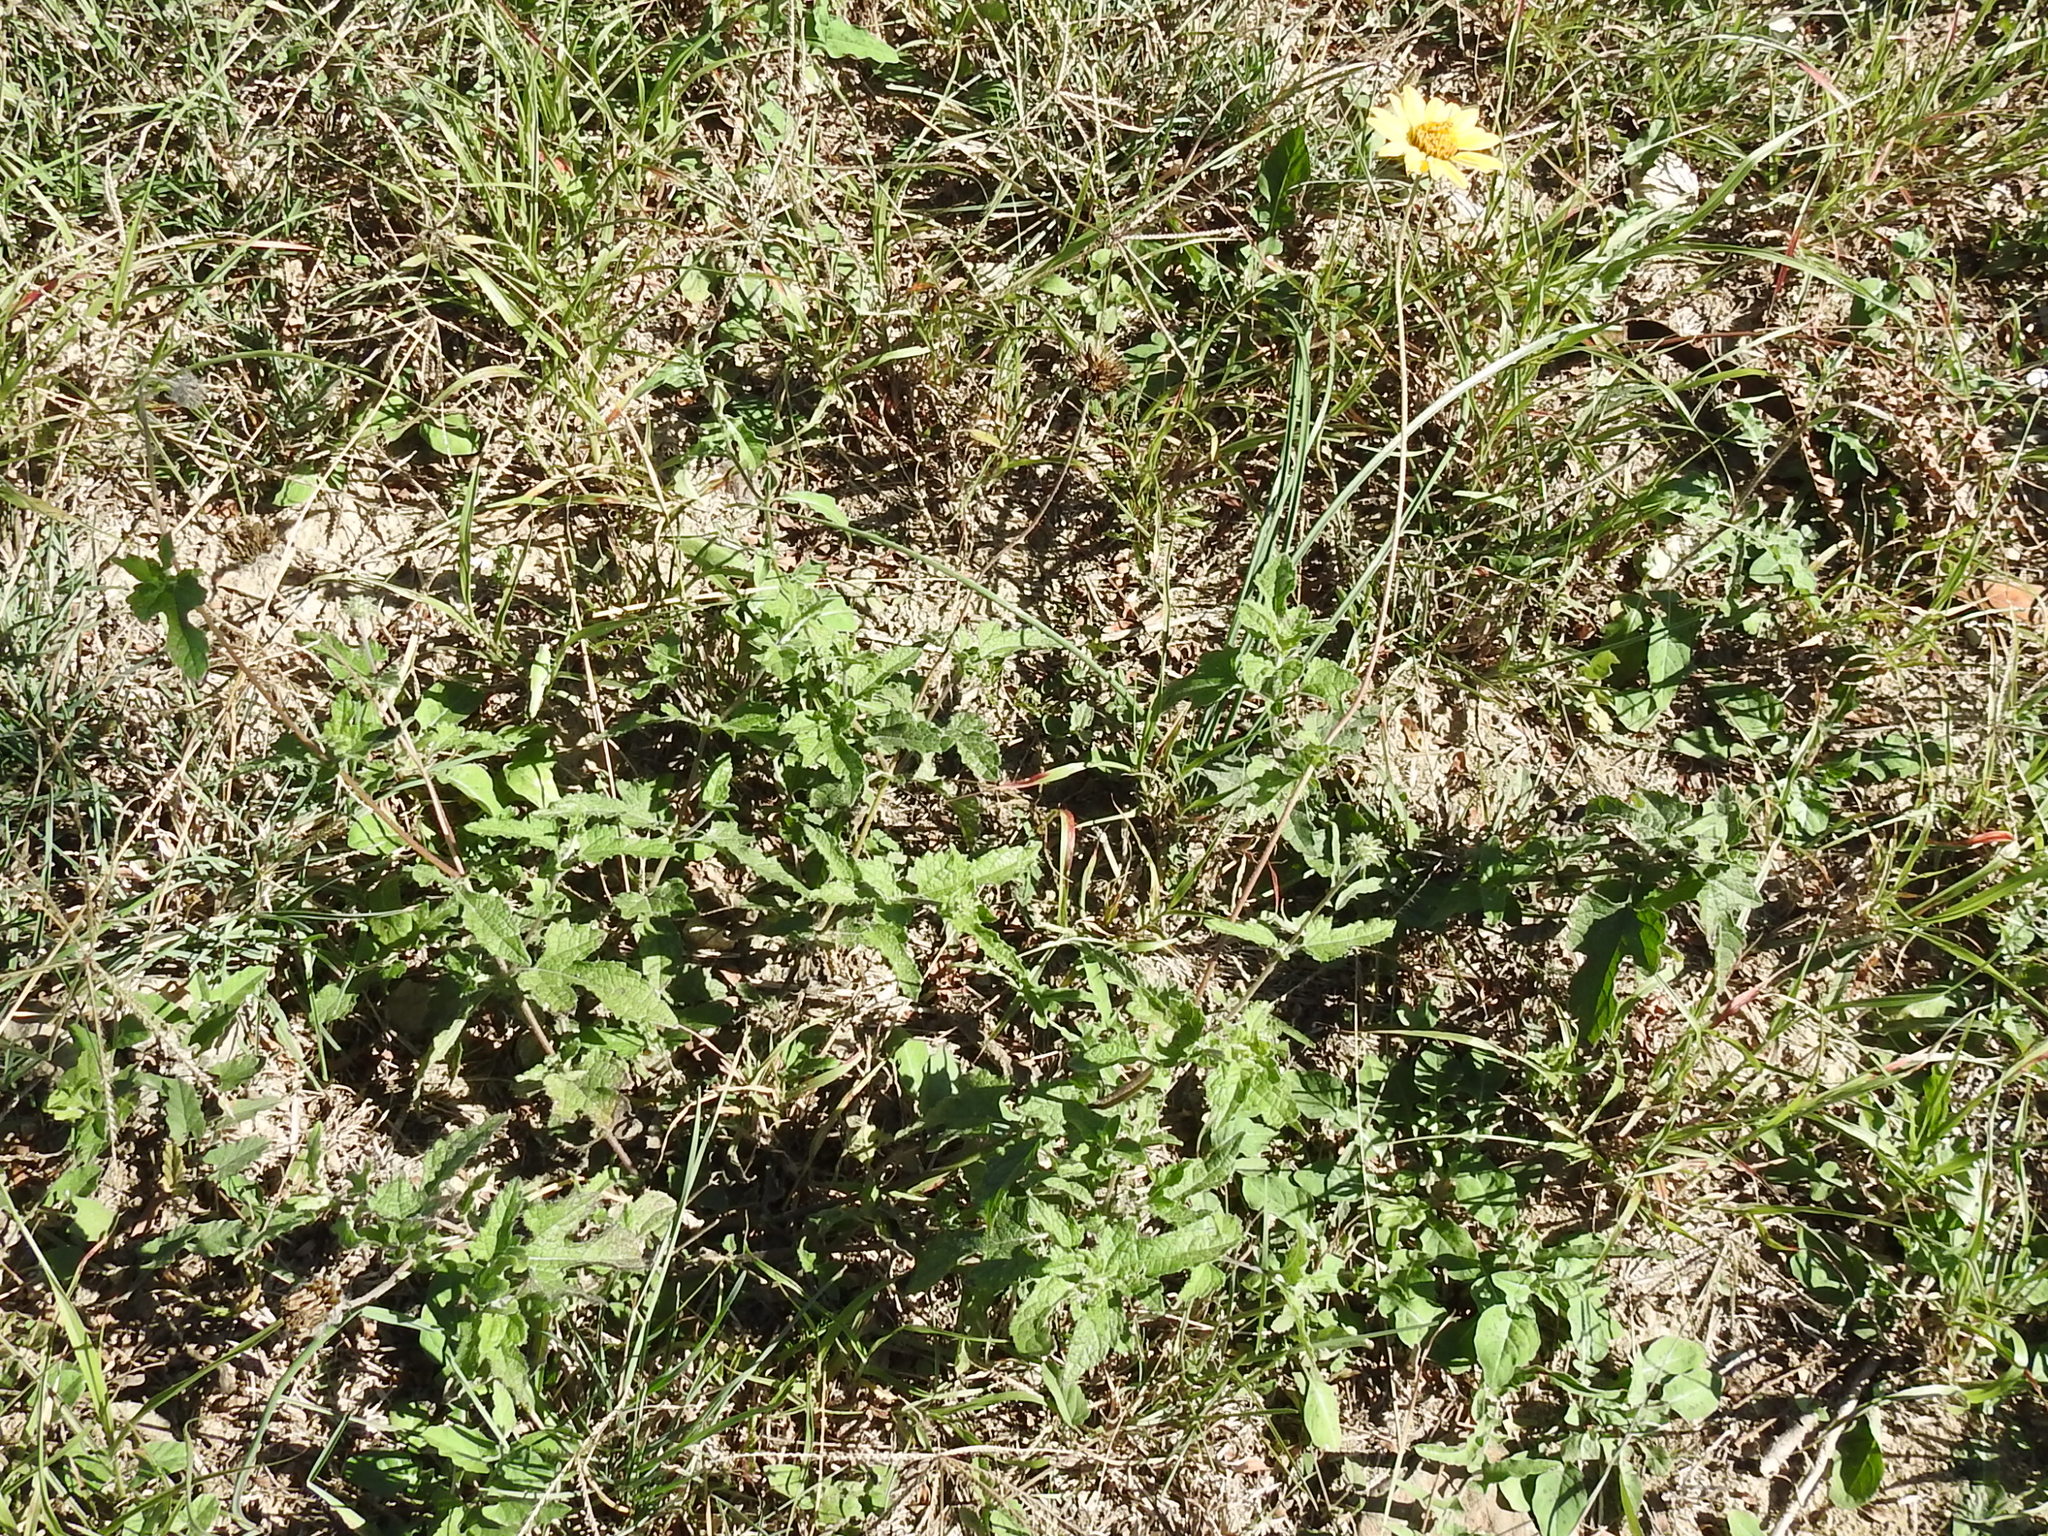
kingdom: Plantae
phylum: Tracheophyta
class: Magnoliopsida
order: Asterales
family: Asteraceae
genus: Simsia
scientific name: Simsia calva
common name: Awnless bush-sunflower
